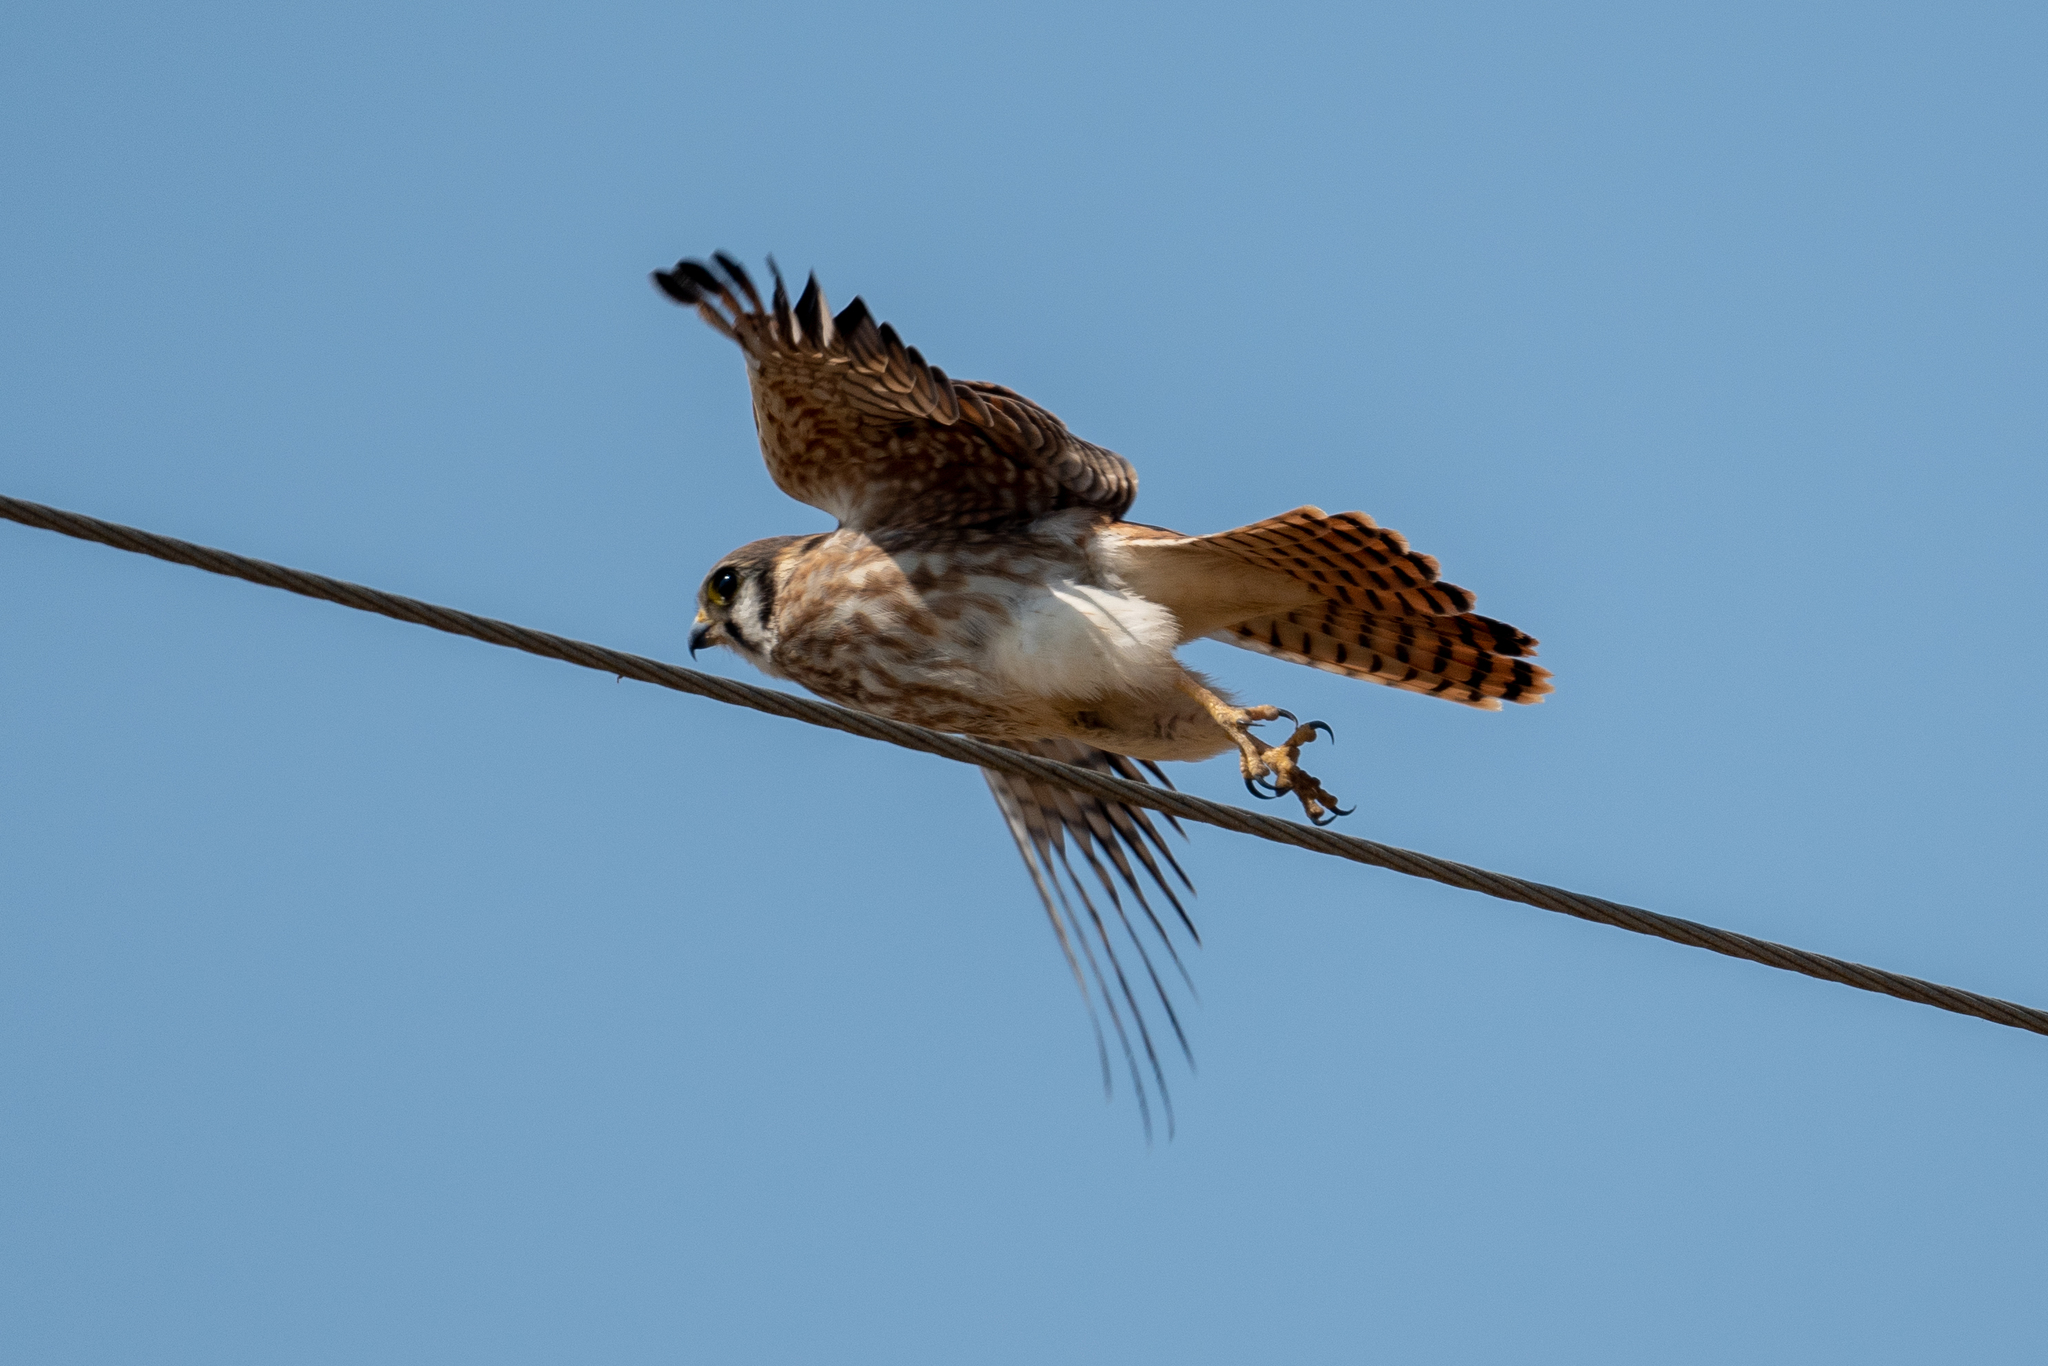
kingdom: Animalia
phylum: Chordata
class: Aves
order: Falconiformes
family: Falconidae
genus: Falco
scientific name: Falco sparverius
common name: American kestrel
